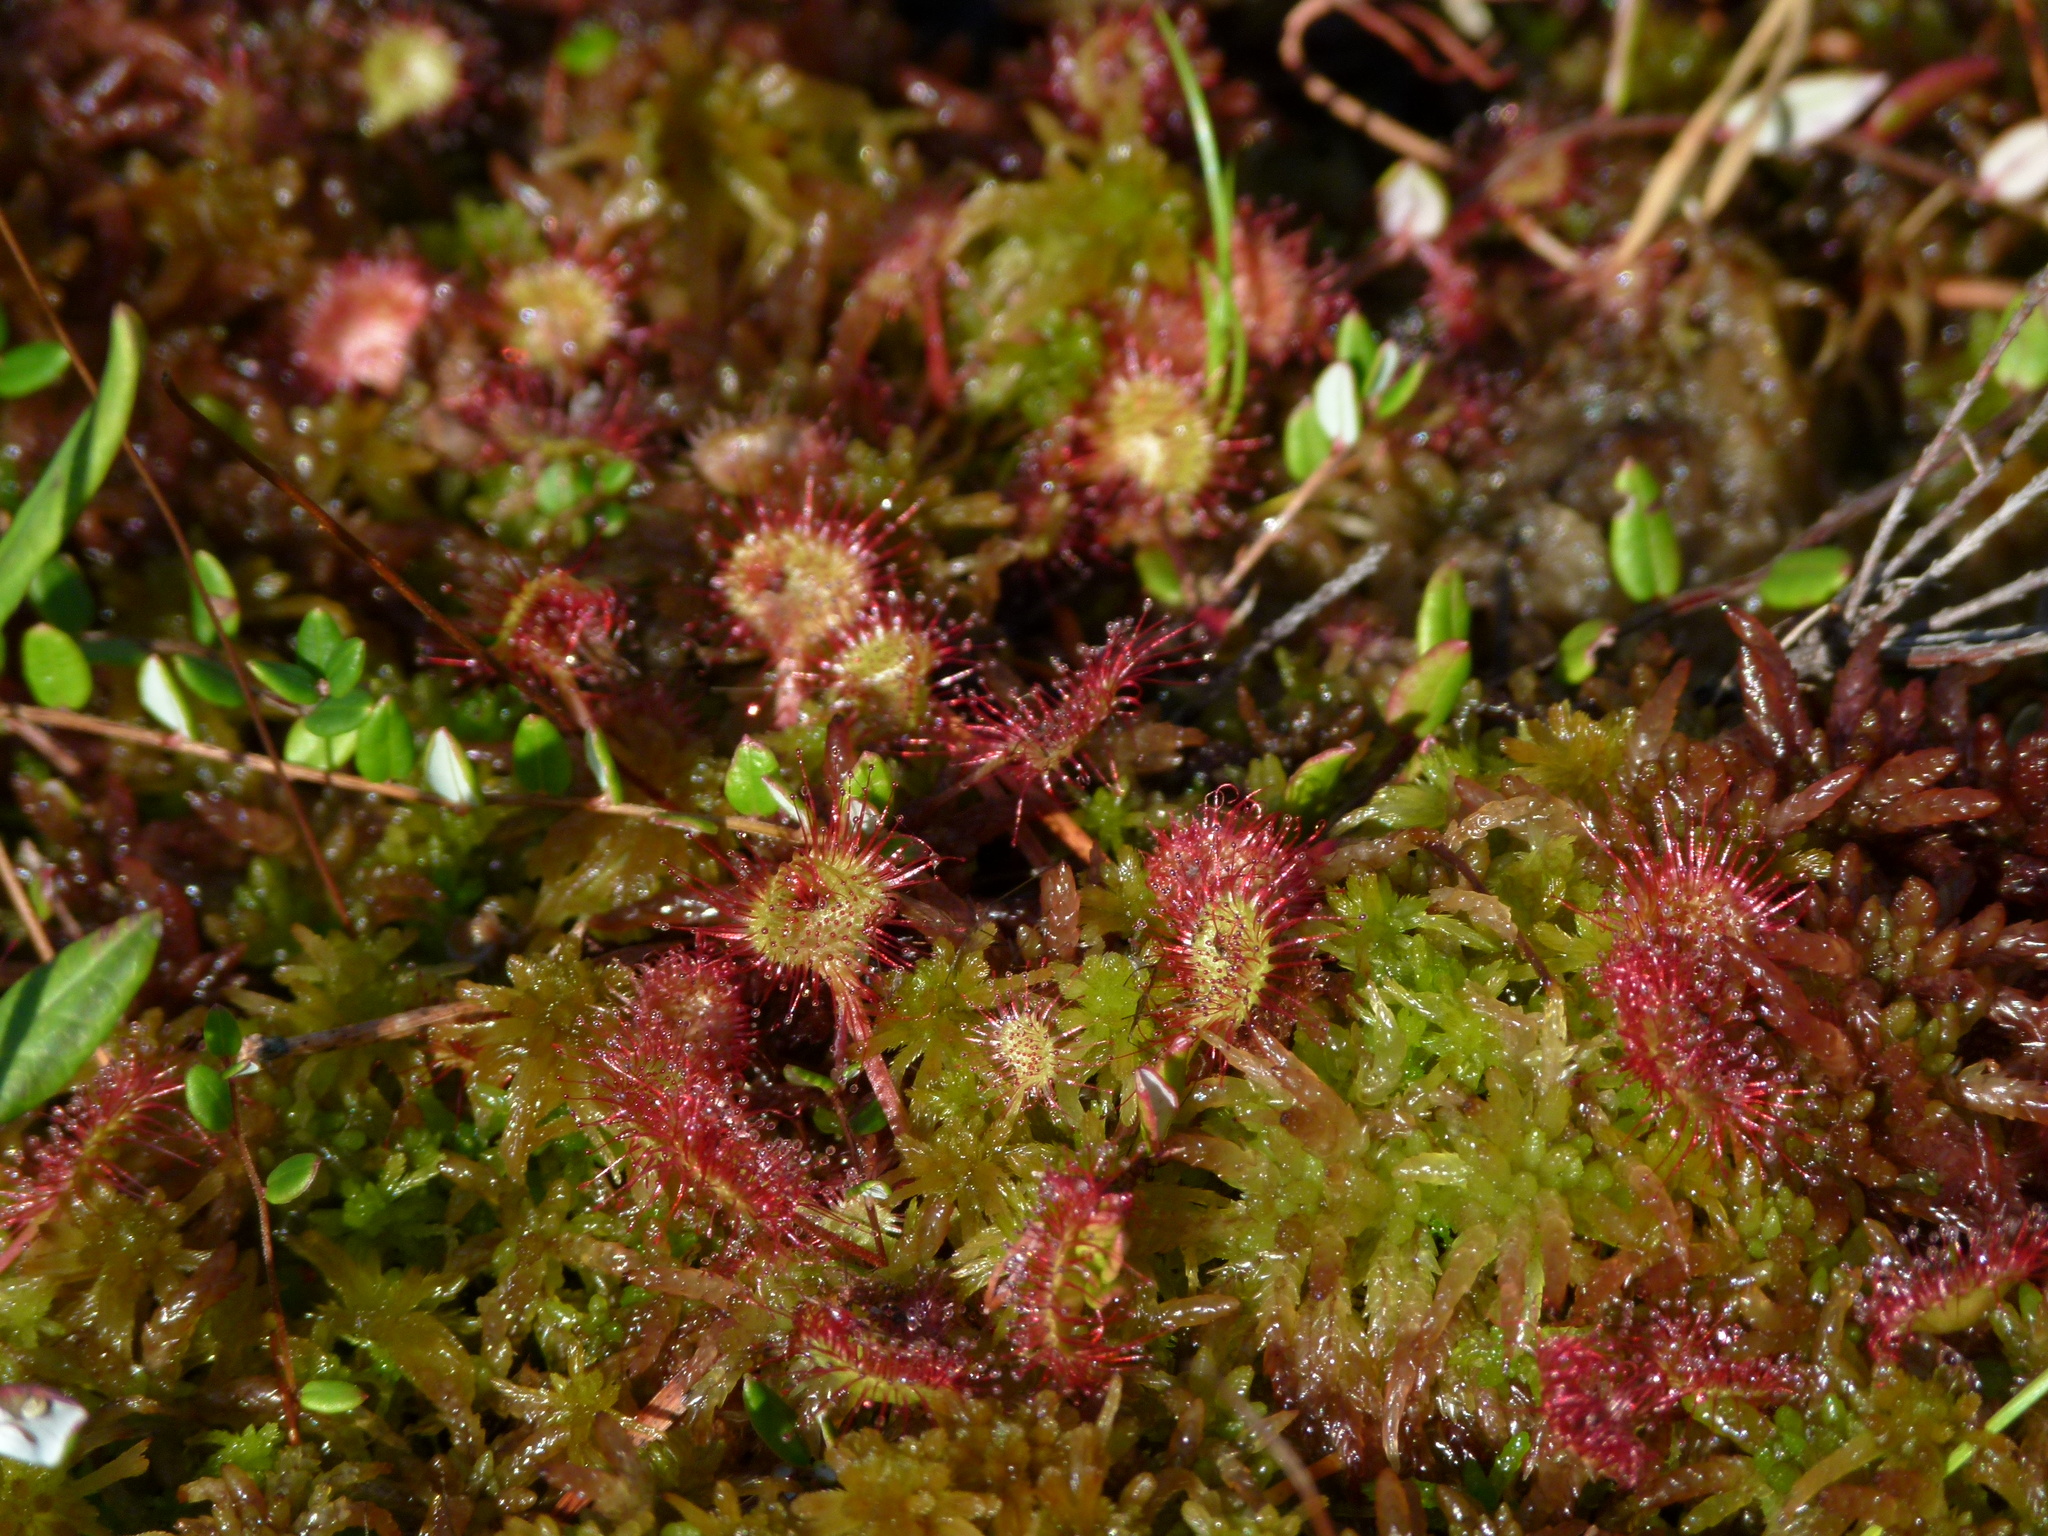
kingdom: Plantae
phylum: Tracheophyta
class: Magnoliopsida
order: Caryophyllales
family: Droseraceae
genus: Drosera
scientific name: Drosera rotundifolia
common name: Round-leaved sundew
